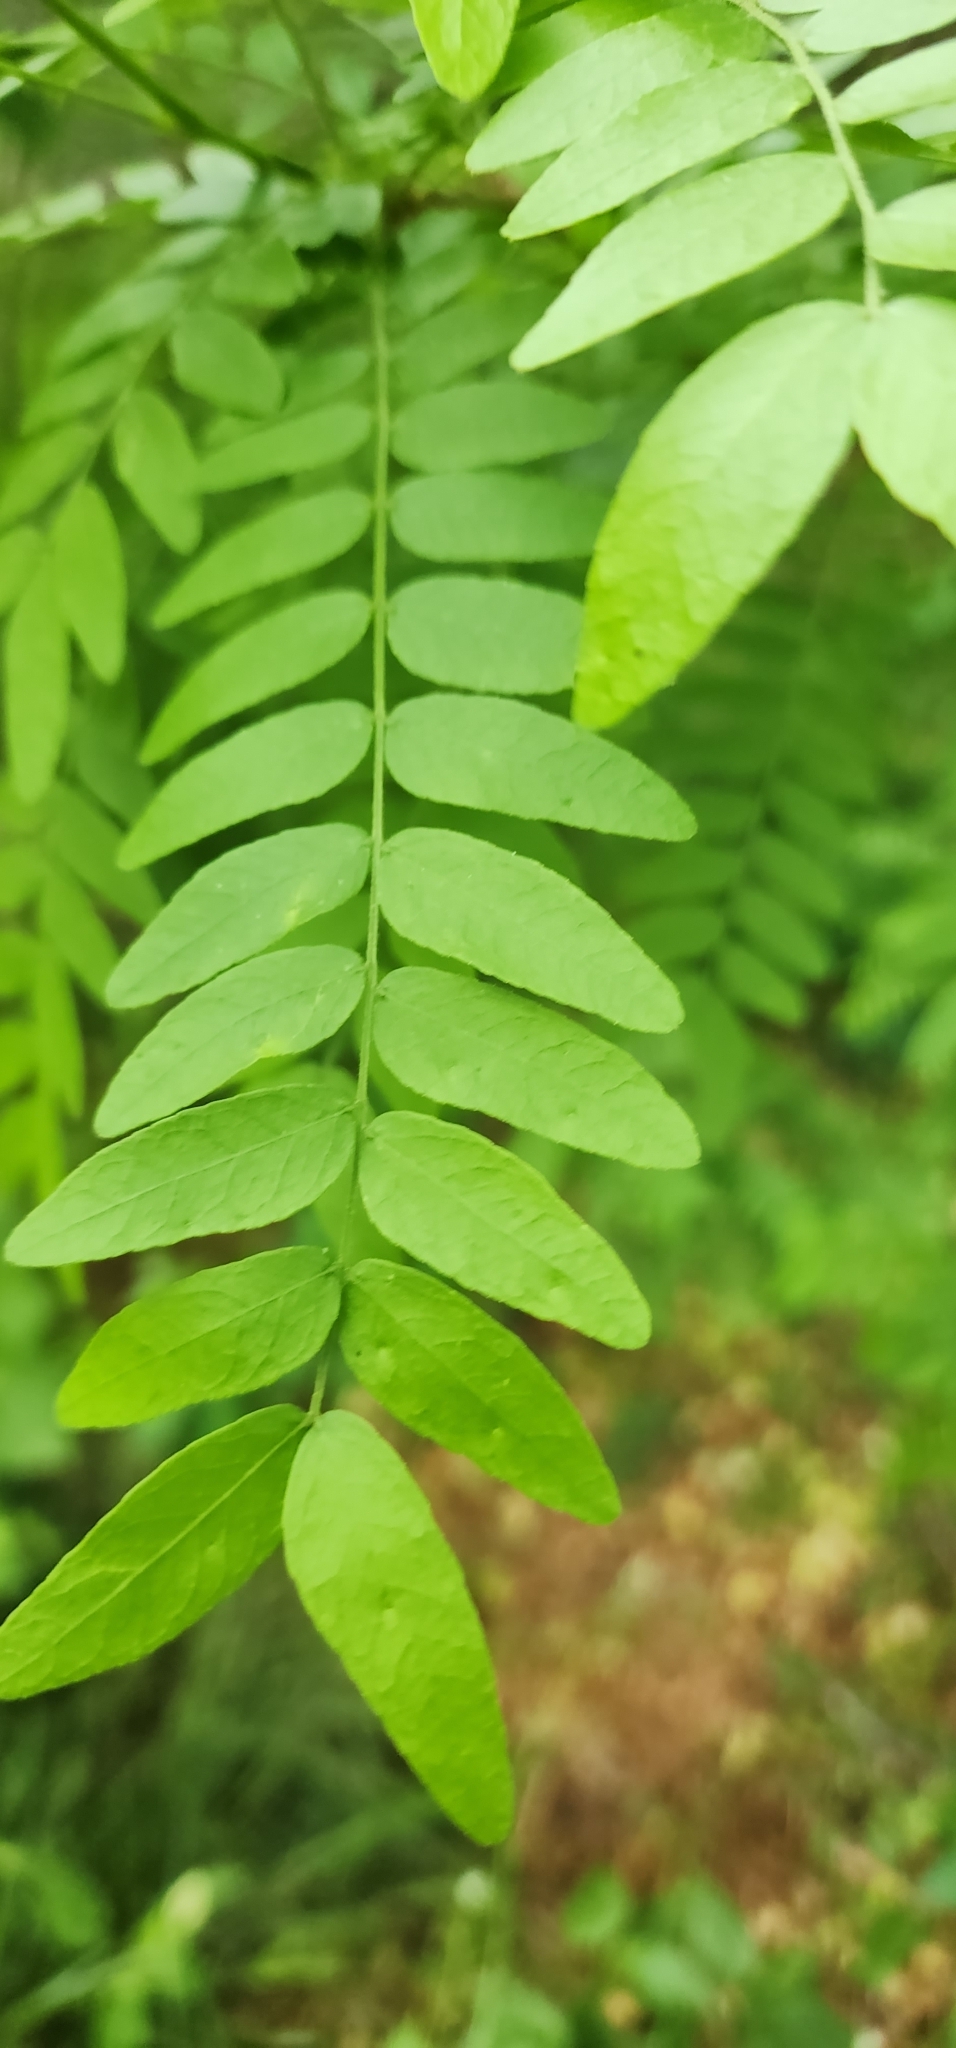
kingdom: Plantae
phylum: Tracheophyta
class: Magnoliopsida
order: Fabales
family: Fabaceae
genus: Gleditsia
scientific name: Gleditsia triacanthos
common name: Common honeylocust
